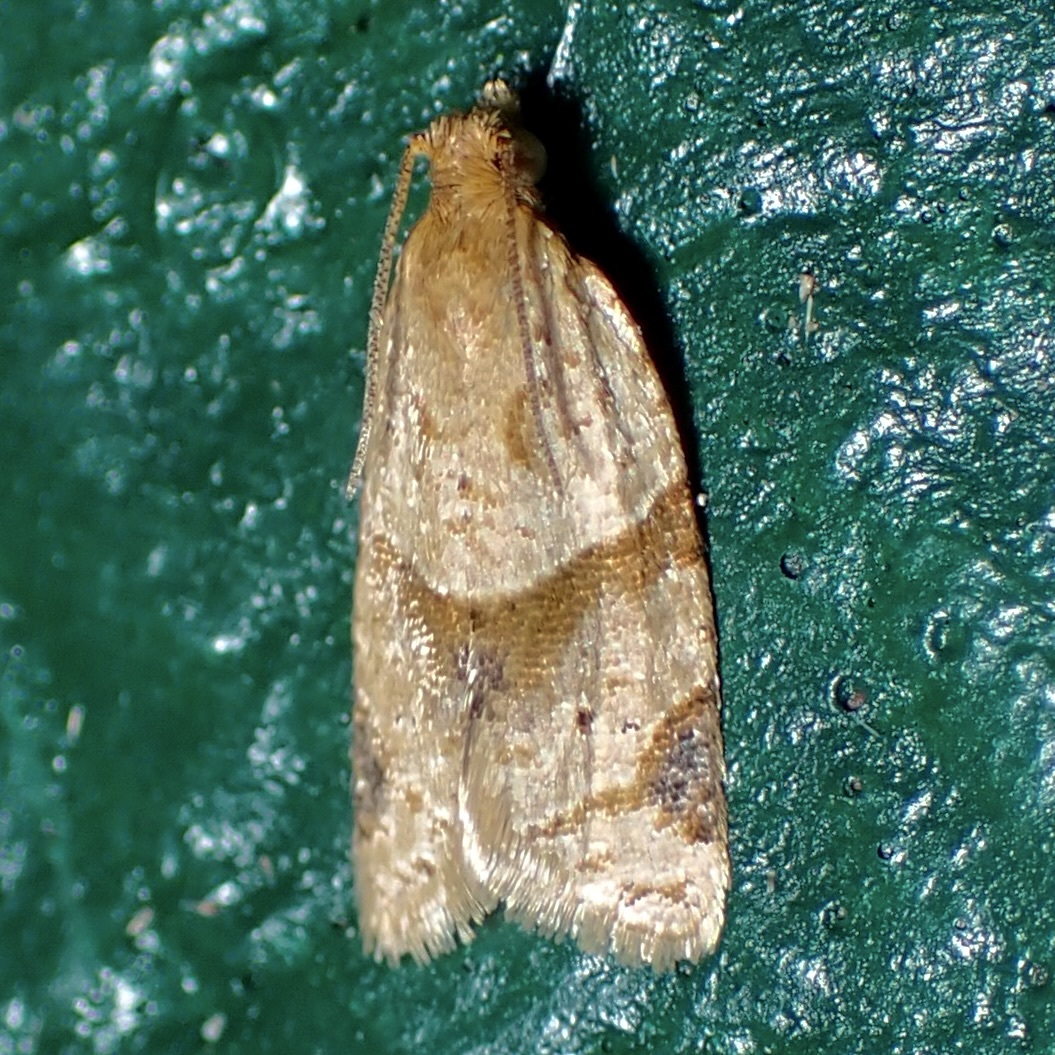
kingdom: Animalia
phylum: Arthropoda
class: Insecta
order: Lepidoptera
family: Tortricidae
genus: Clepsis
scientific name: Clepsis peritana
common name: Garden tortrix
